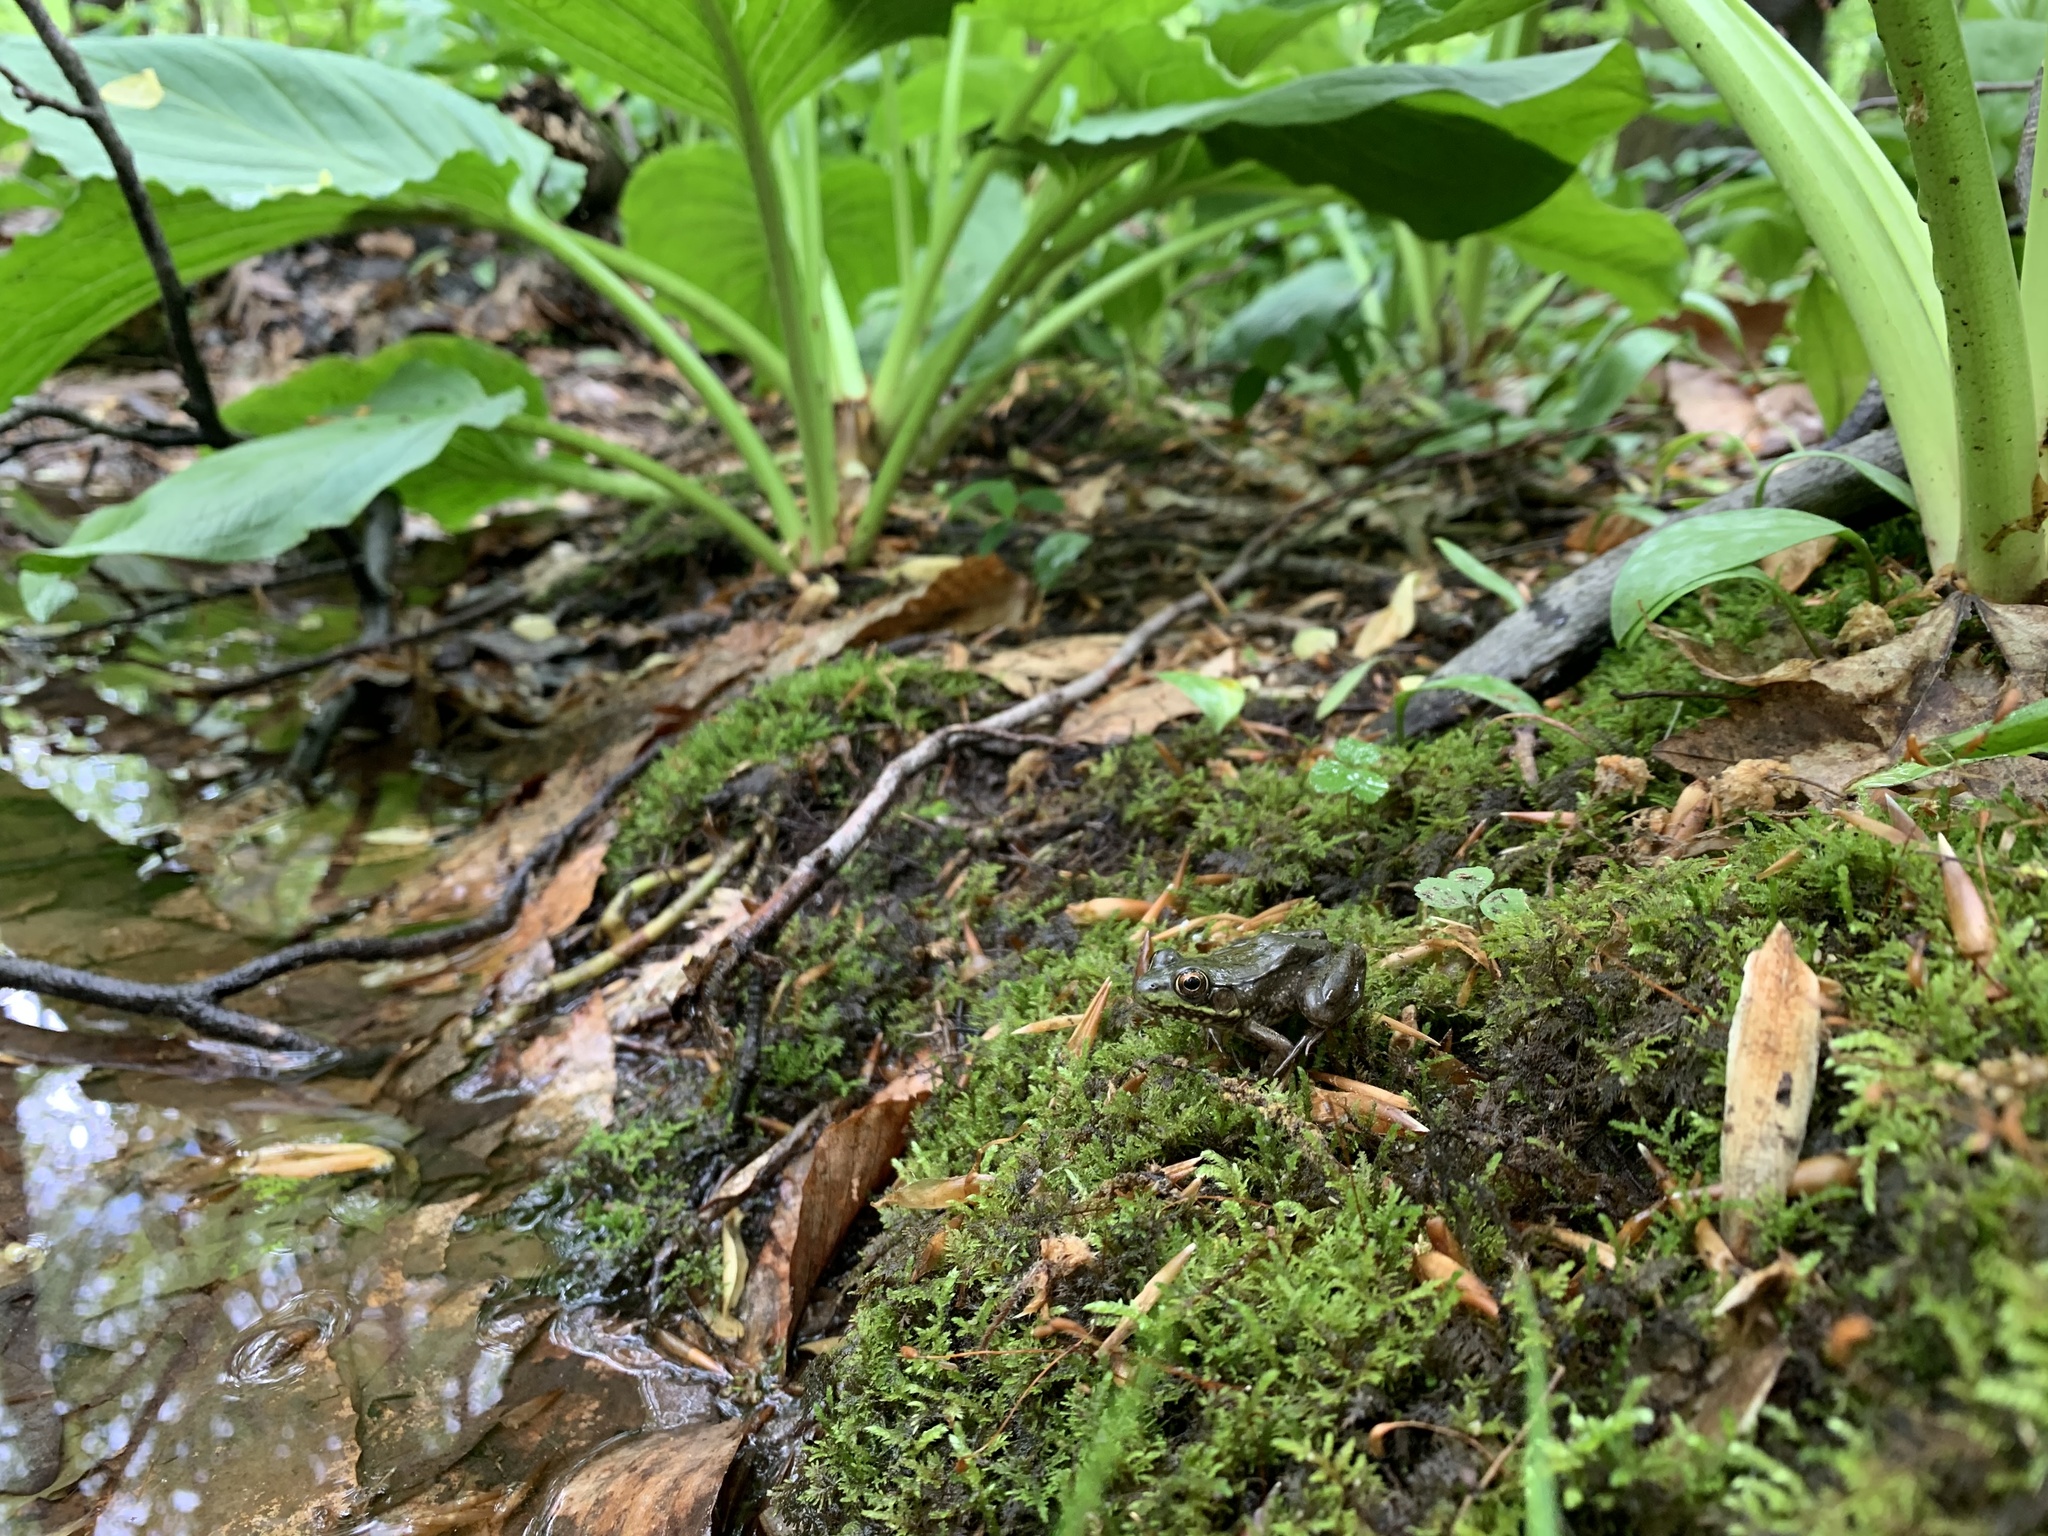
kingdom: Animalia
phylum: Chordata
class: Amphibia
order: Anura
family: Ranidae
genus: Lithobates
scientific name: Lithobates clamitans
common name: Green frog
